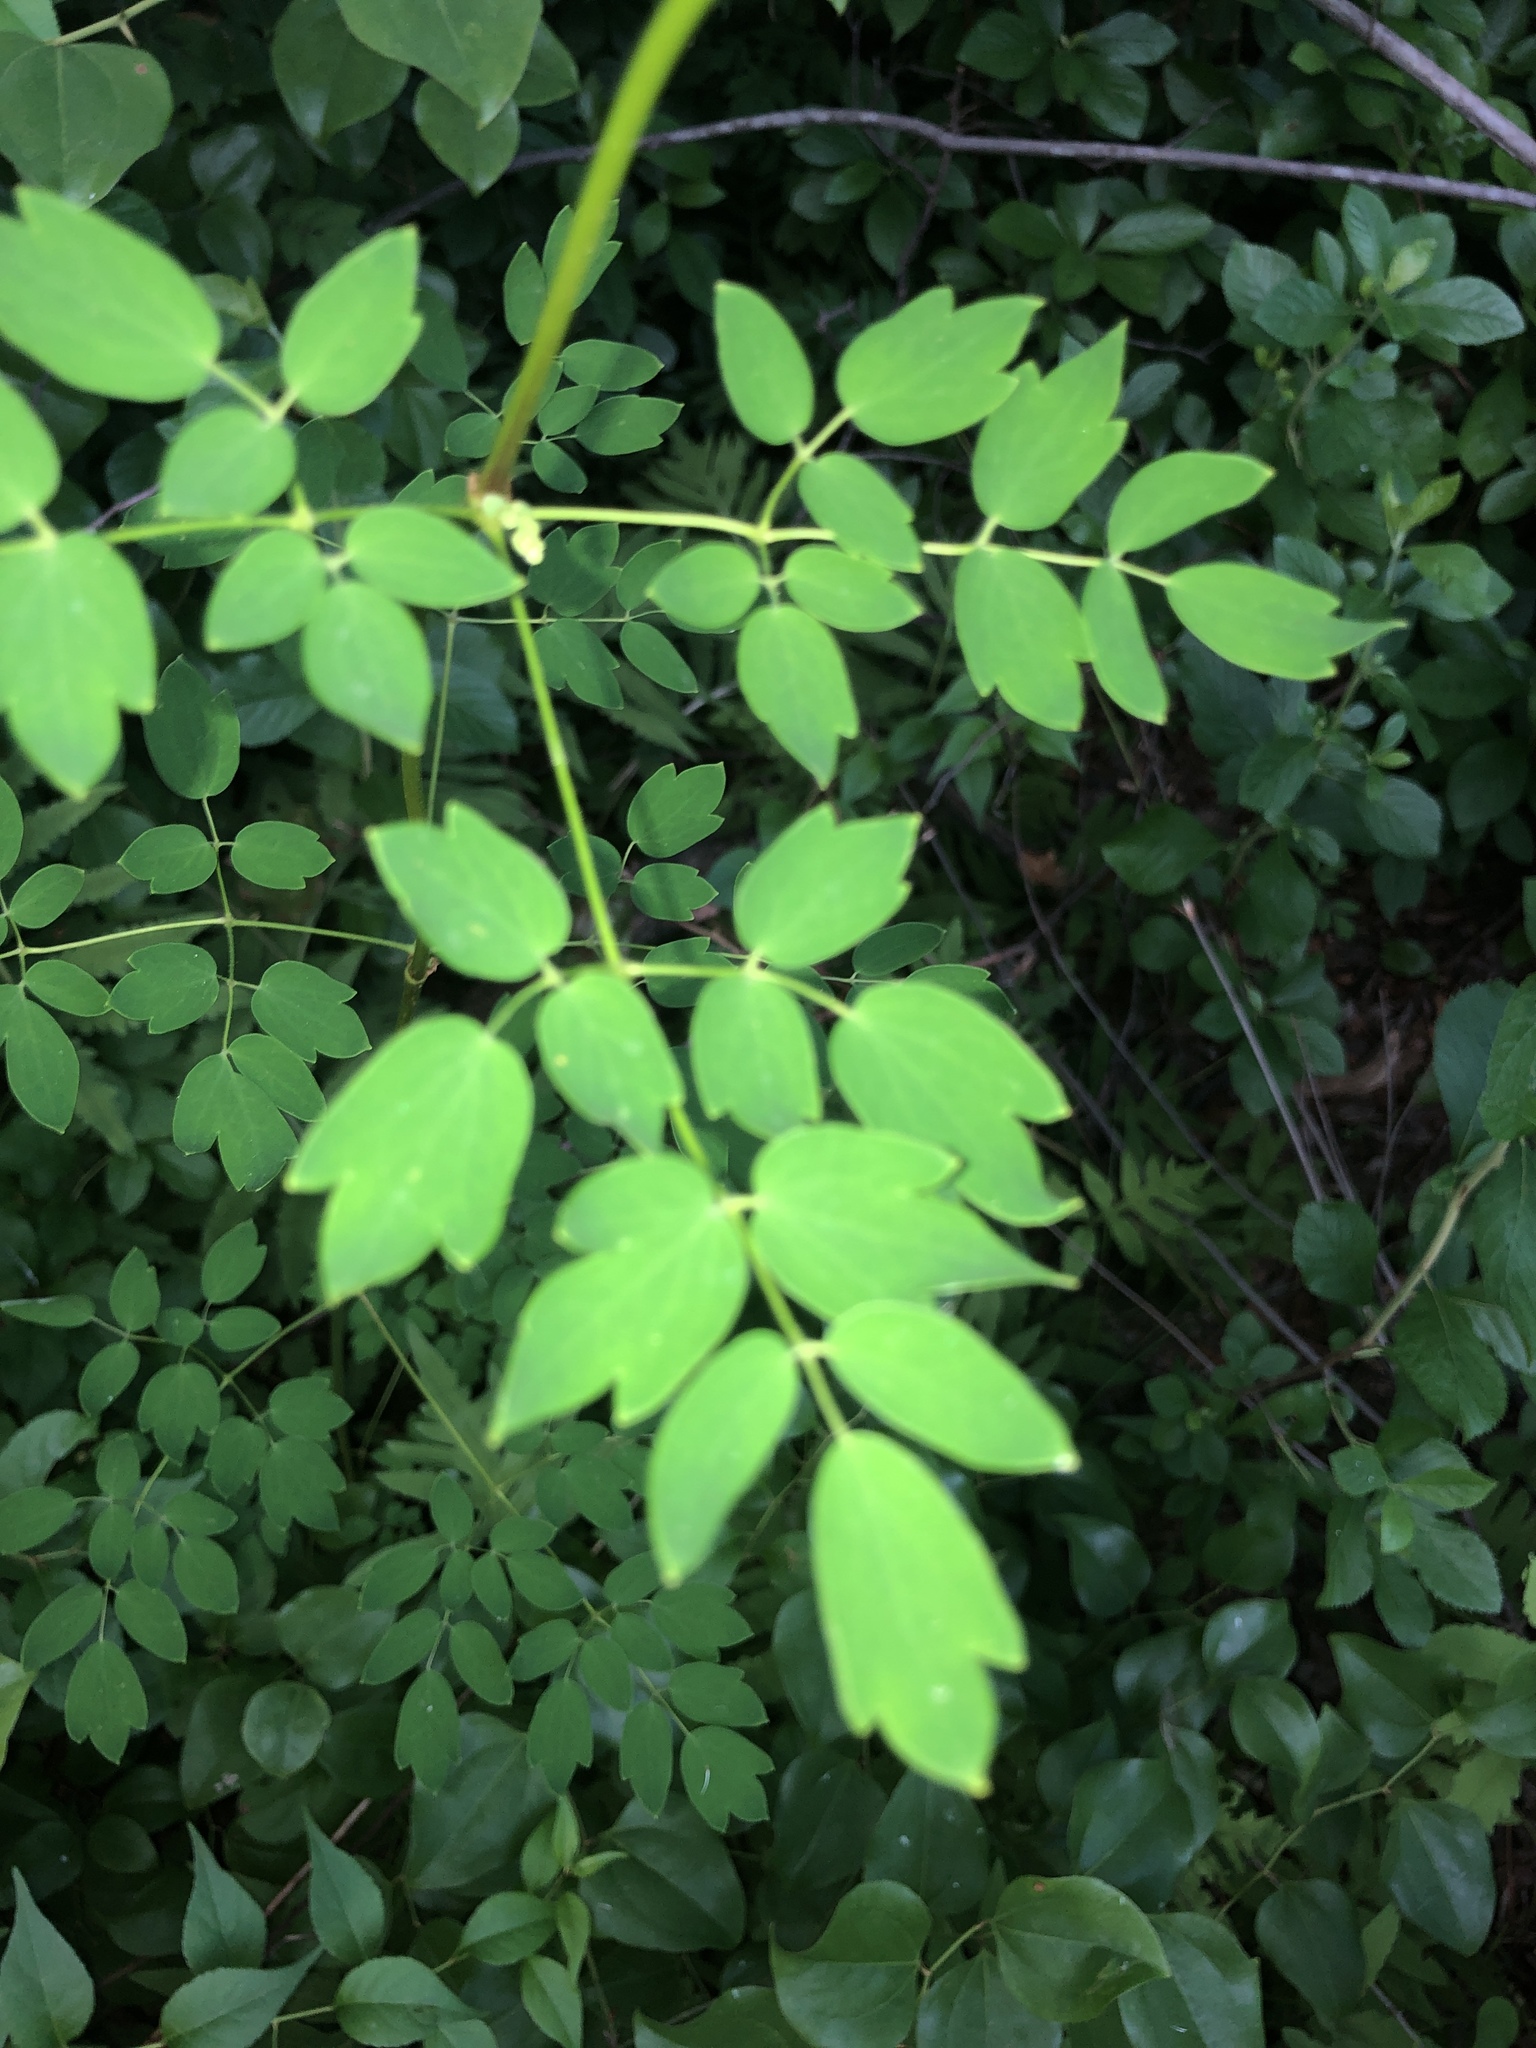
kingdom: Plantae
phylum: Tracheophyta
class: Magnoliopsida
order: Ranunculales
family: Ranunculaceae
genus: Thalictrum
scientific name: Thalictrum pubescens
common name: King-of-the-meadow
